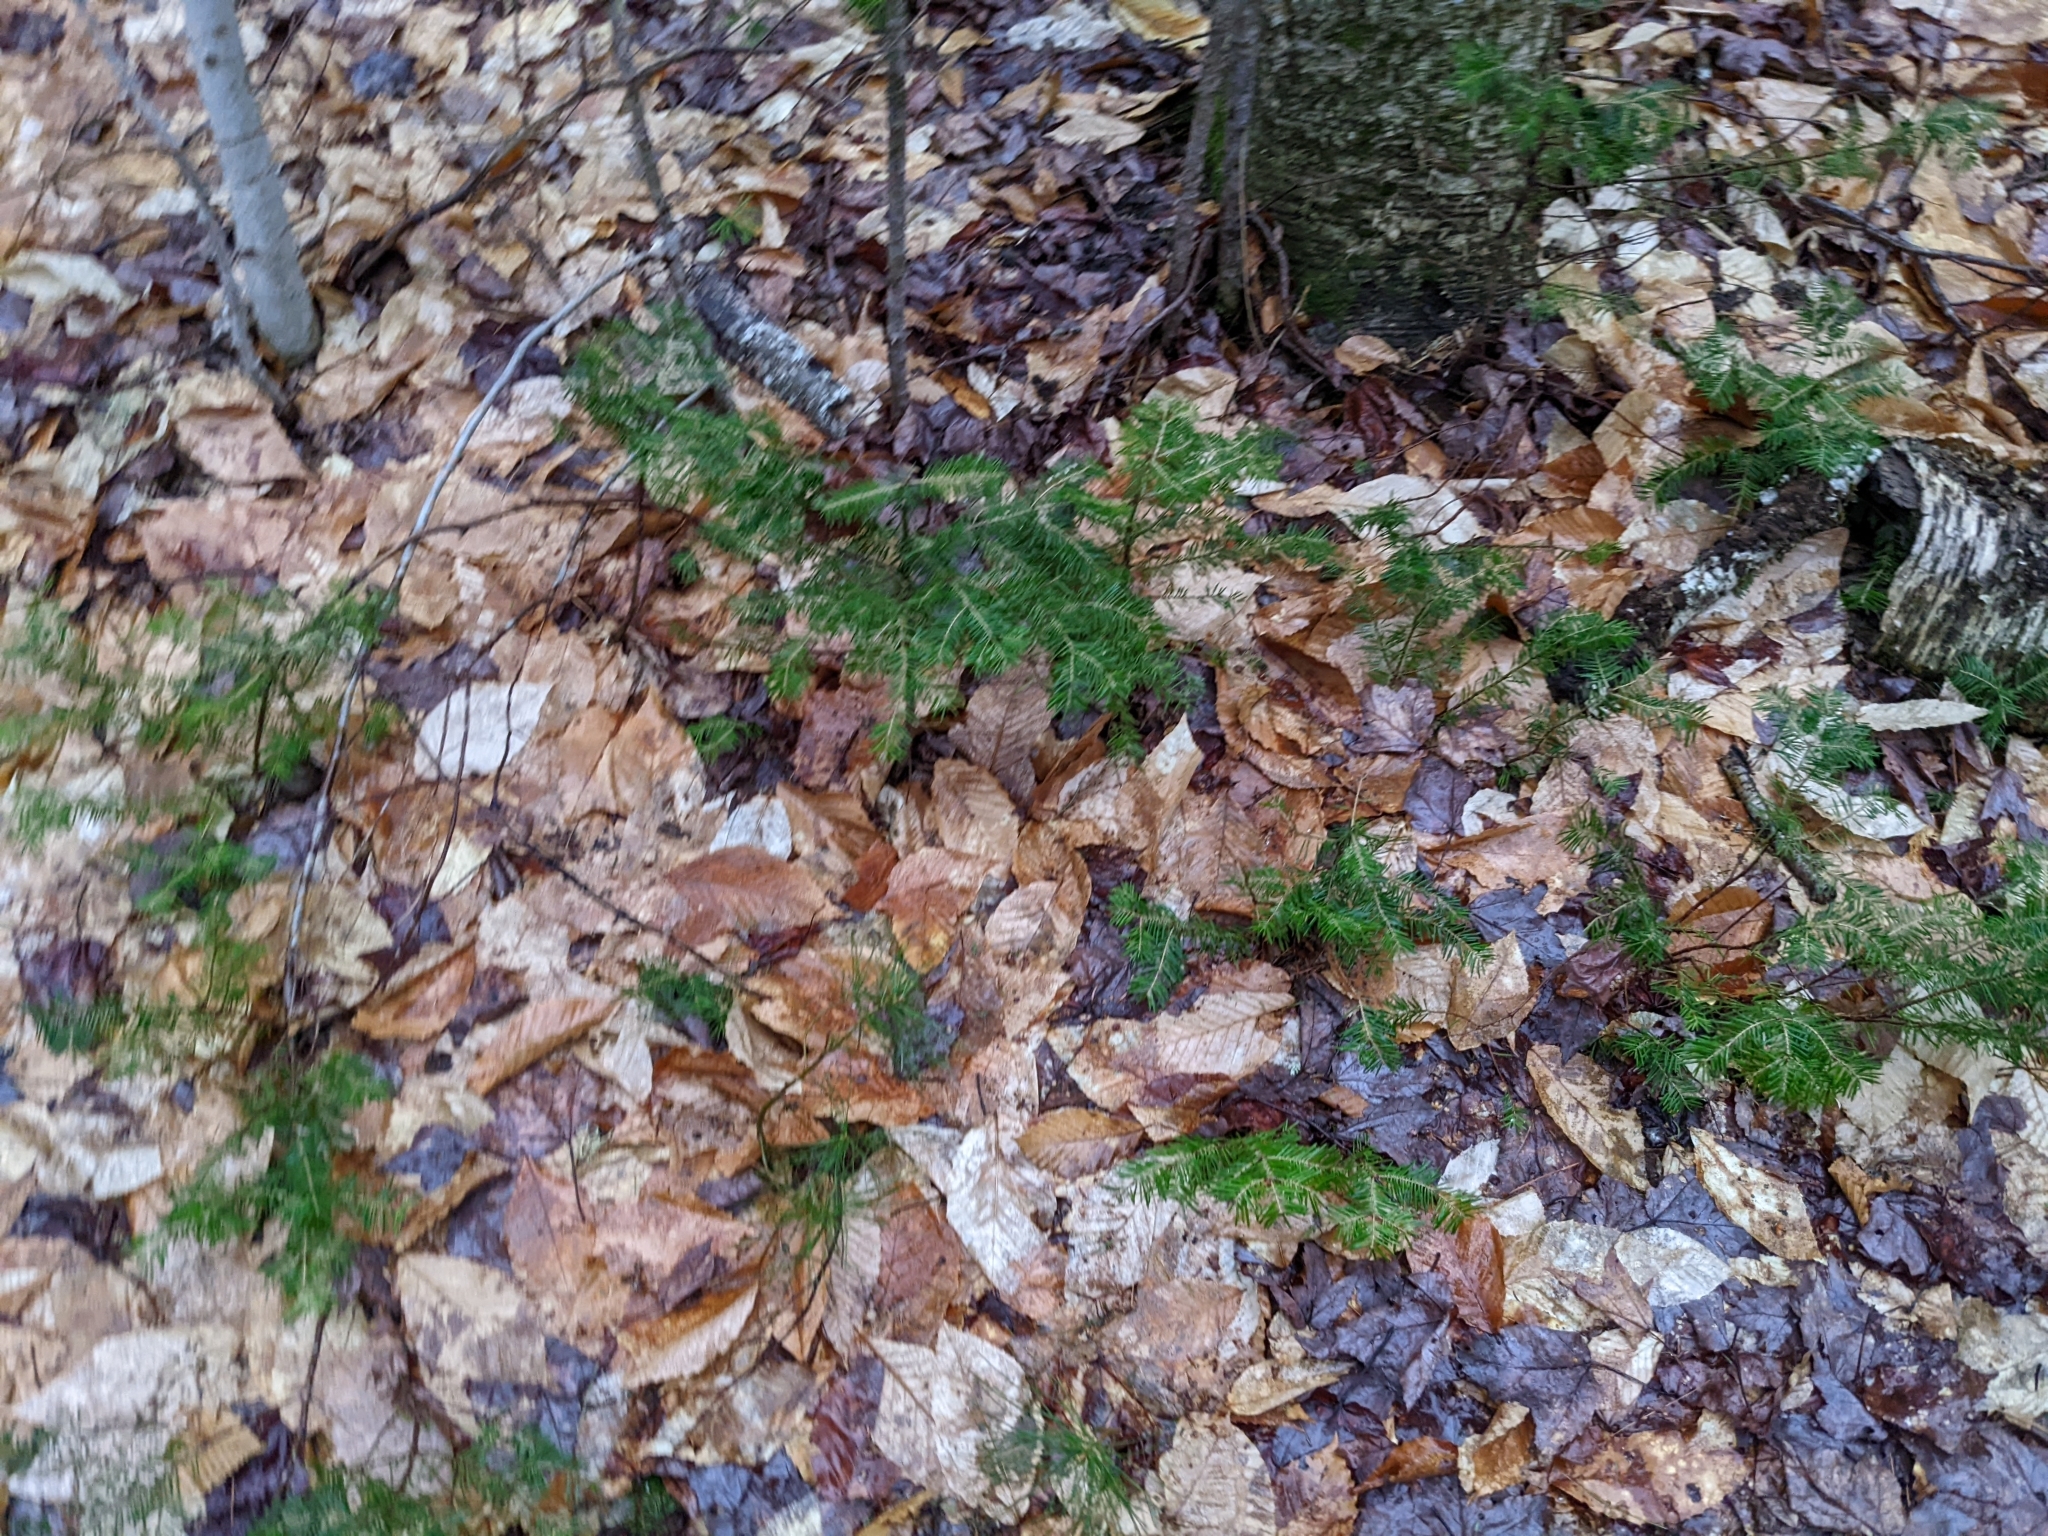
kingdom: Plantae
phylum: Tracheophyta
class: Pinopsida
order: Pinales
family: Pinaceae
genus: Abies
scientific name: Abies balsamea
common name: Balsam fir
